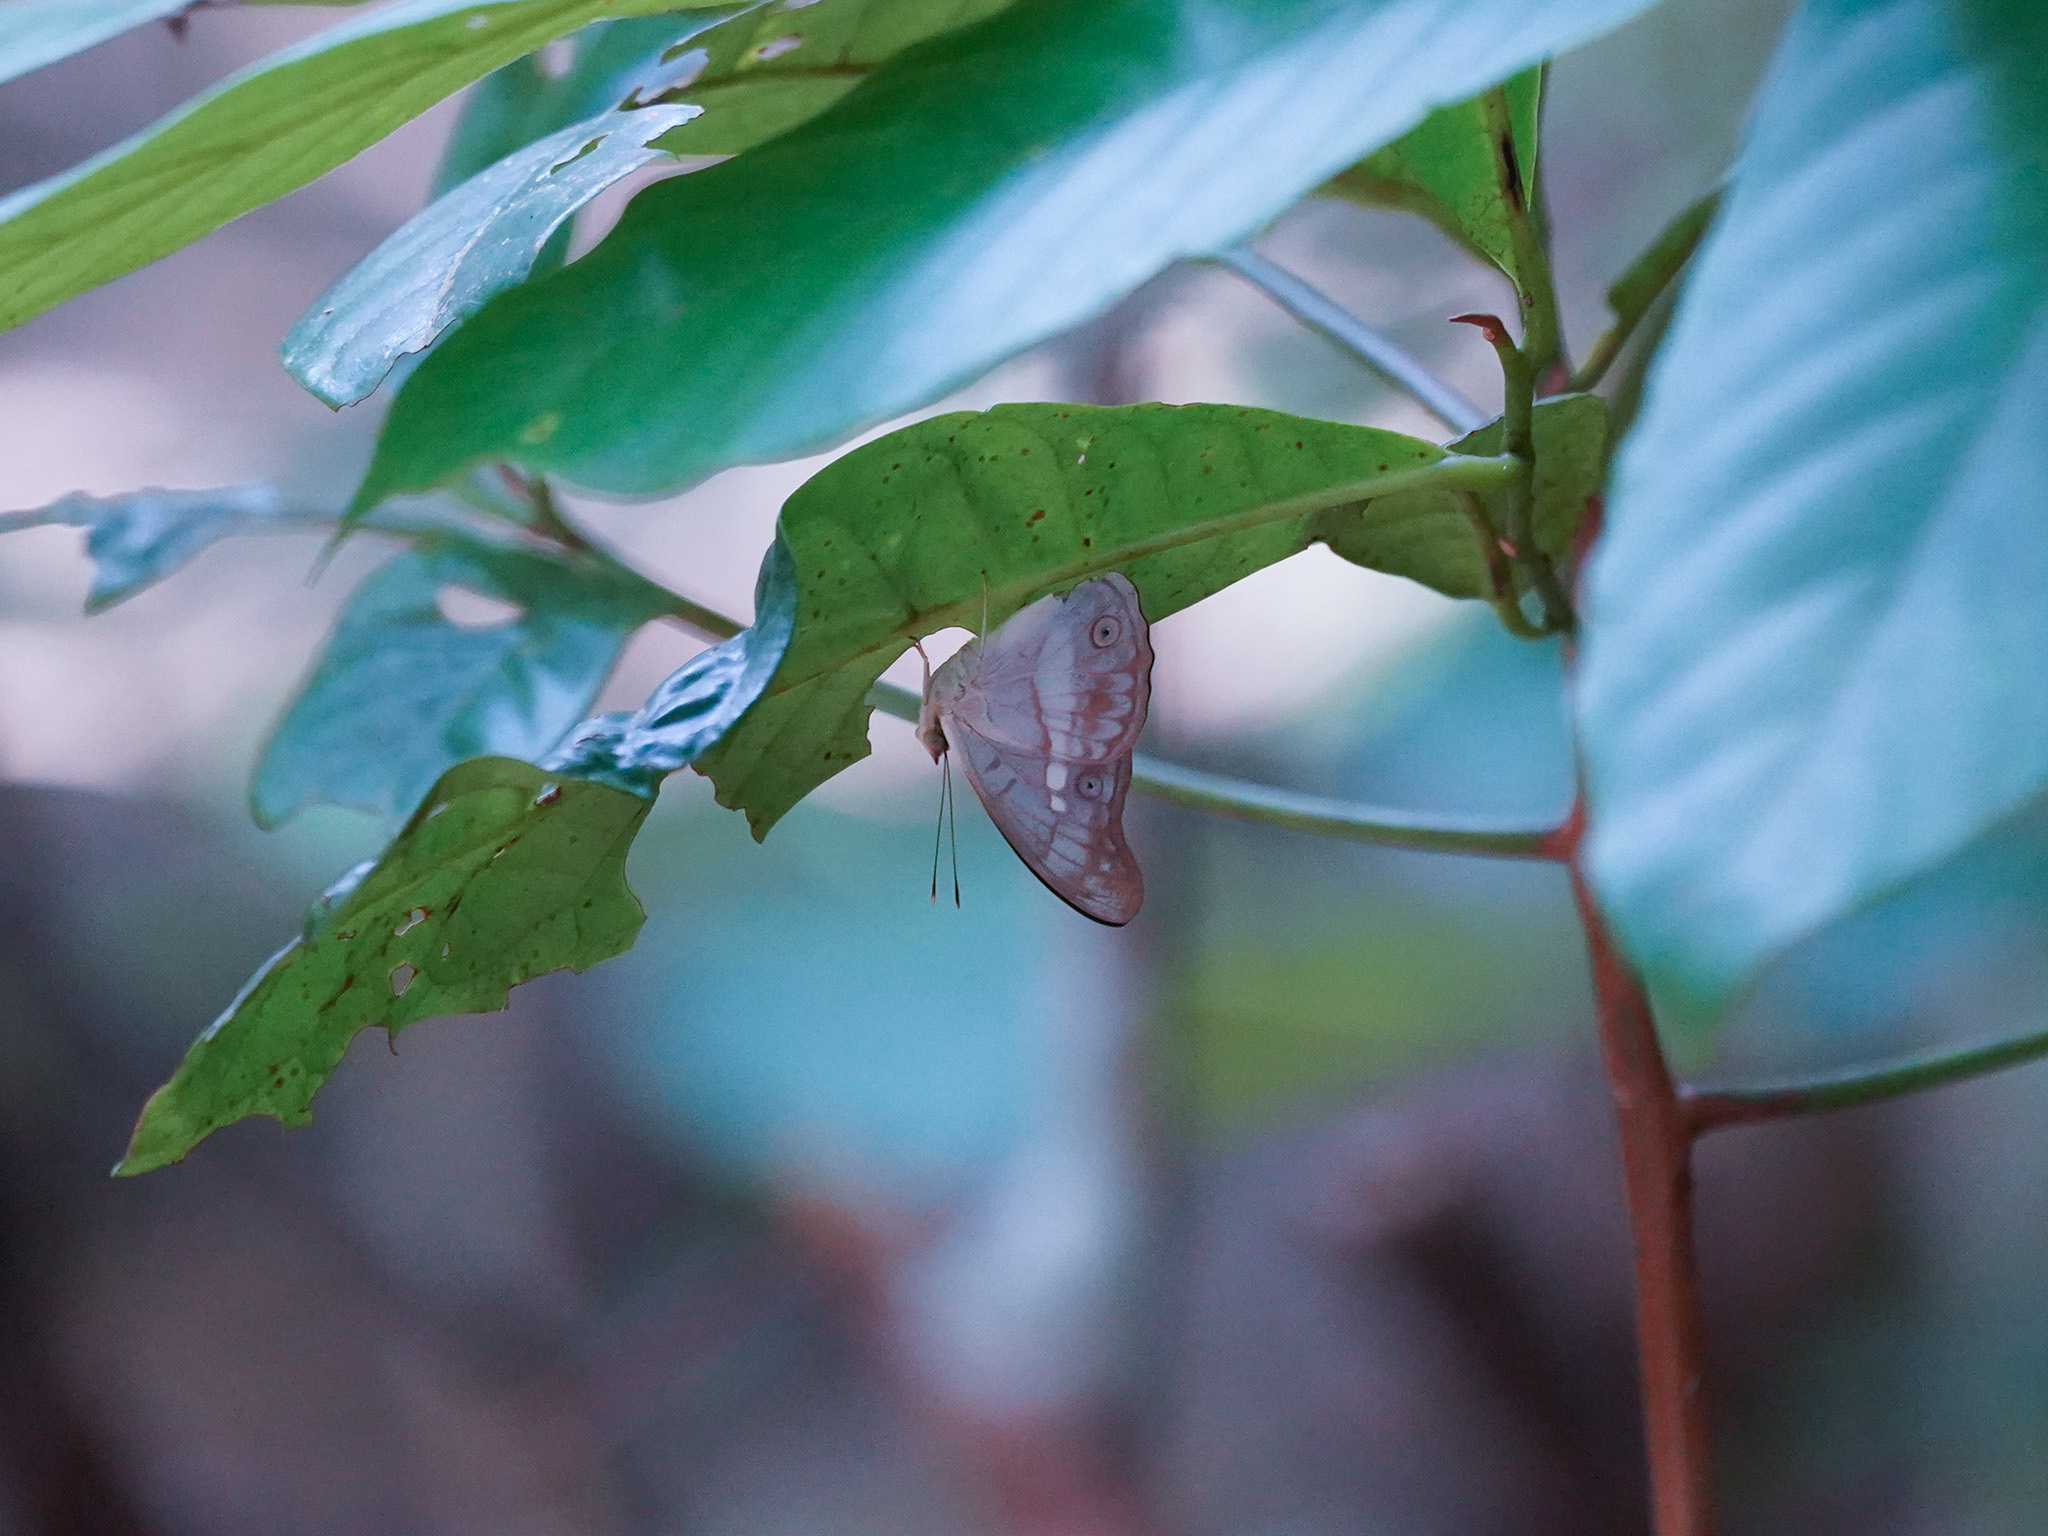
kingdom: Animalia
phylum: Arthropoda
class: Insecta
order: Lepidoptera
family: Nymphalidae
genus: Eulaceura
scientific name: Eulaceura osteria
